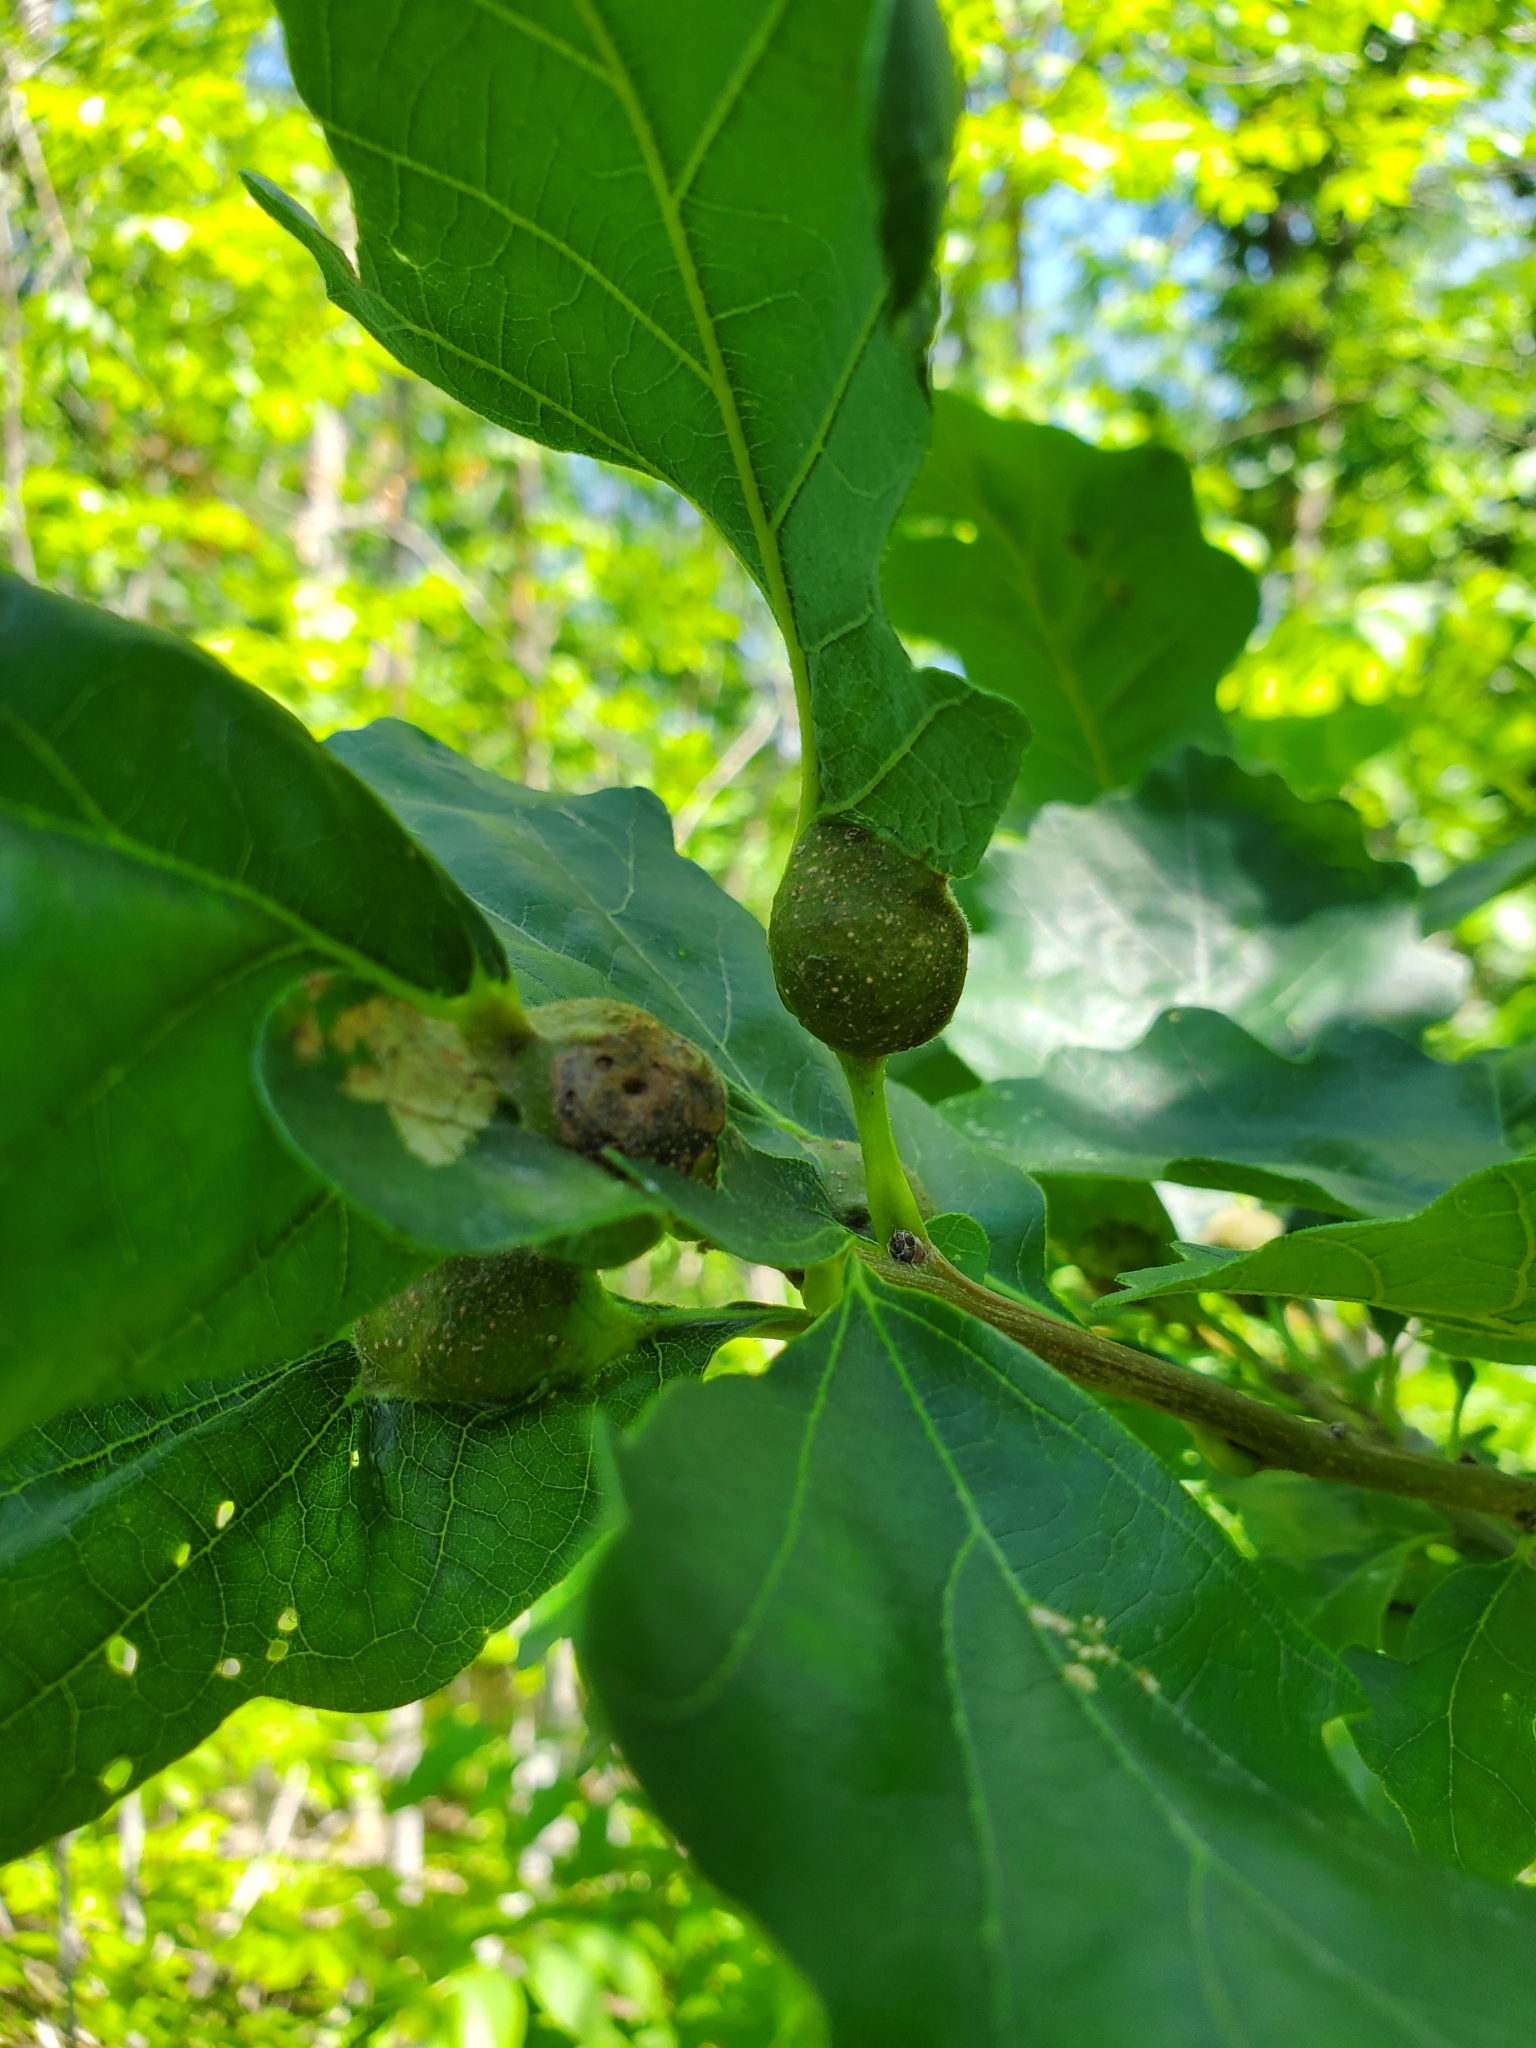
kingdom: Animalia
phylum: Arthropoda
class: Insecta
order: Hymenoptera
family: Cynipidae
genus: Andricus
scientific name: Andricus
